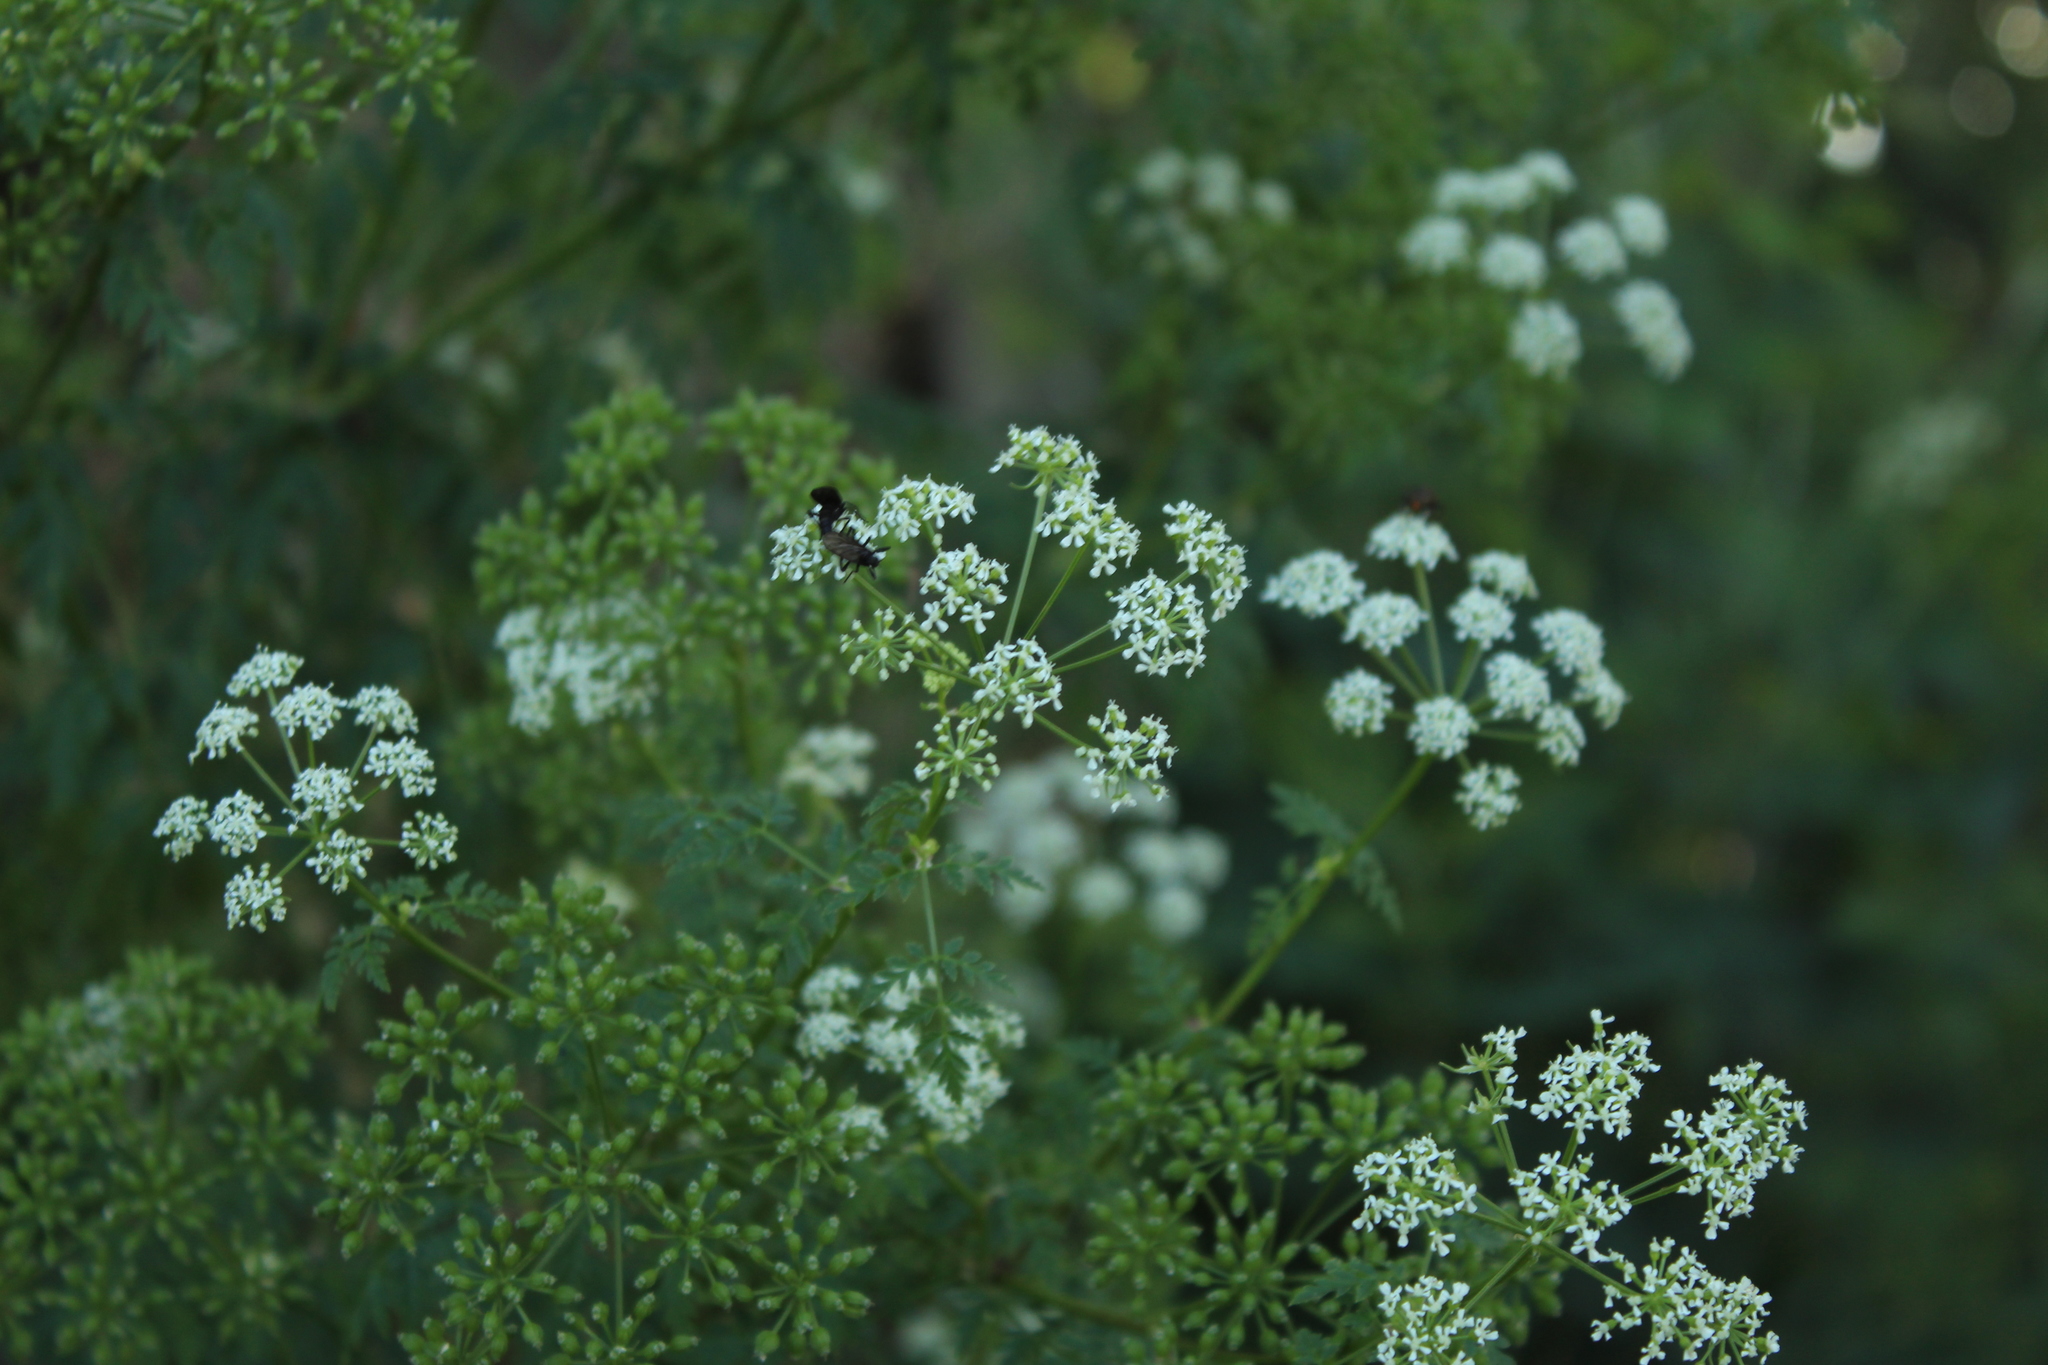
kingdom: Plantae
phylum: Tracheophyta
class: Magnoliopsida
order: Apiales
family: Apiaceae
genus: Conium
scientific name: Conium maculatum
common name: Hemlock
